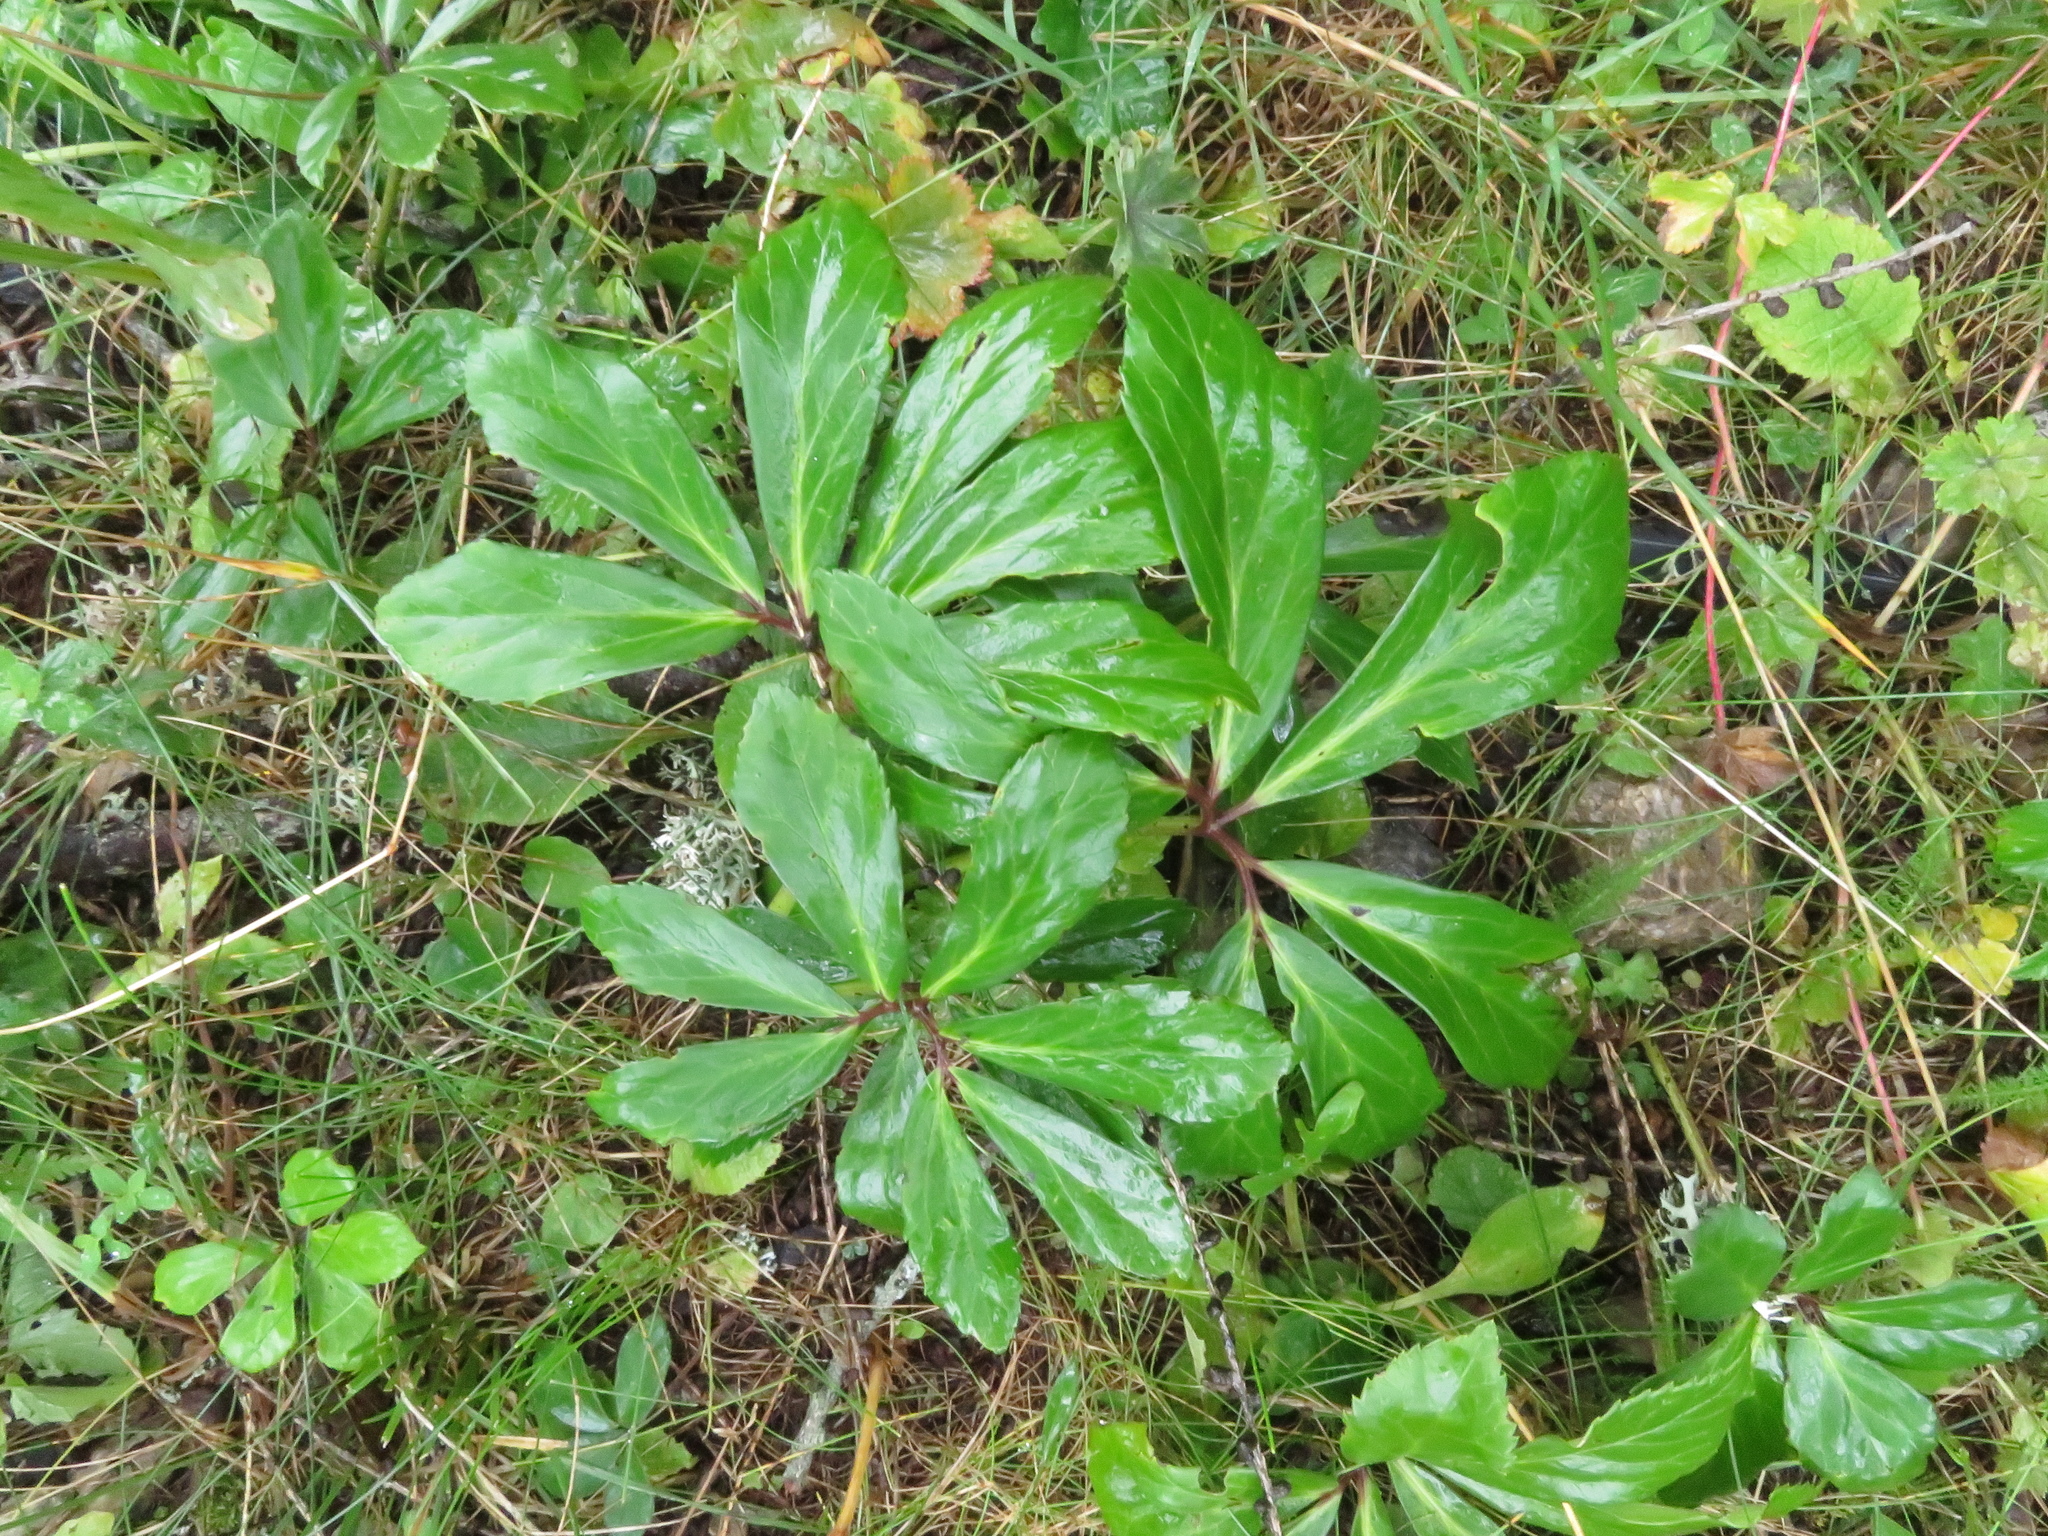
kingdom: Plantae
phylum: Tracheophyta
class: Magnoliopsida
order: Ranunculales
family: Ranunculaceae
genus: Helleborus
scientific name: Helleborus niger
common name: Black hellebore
